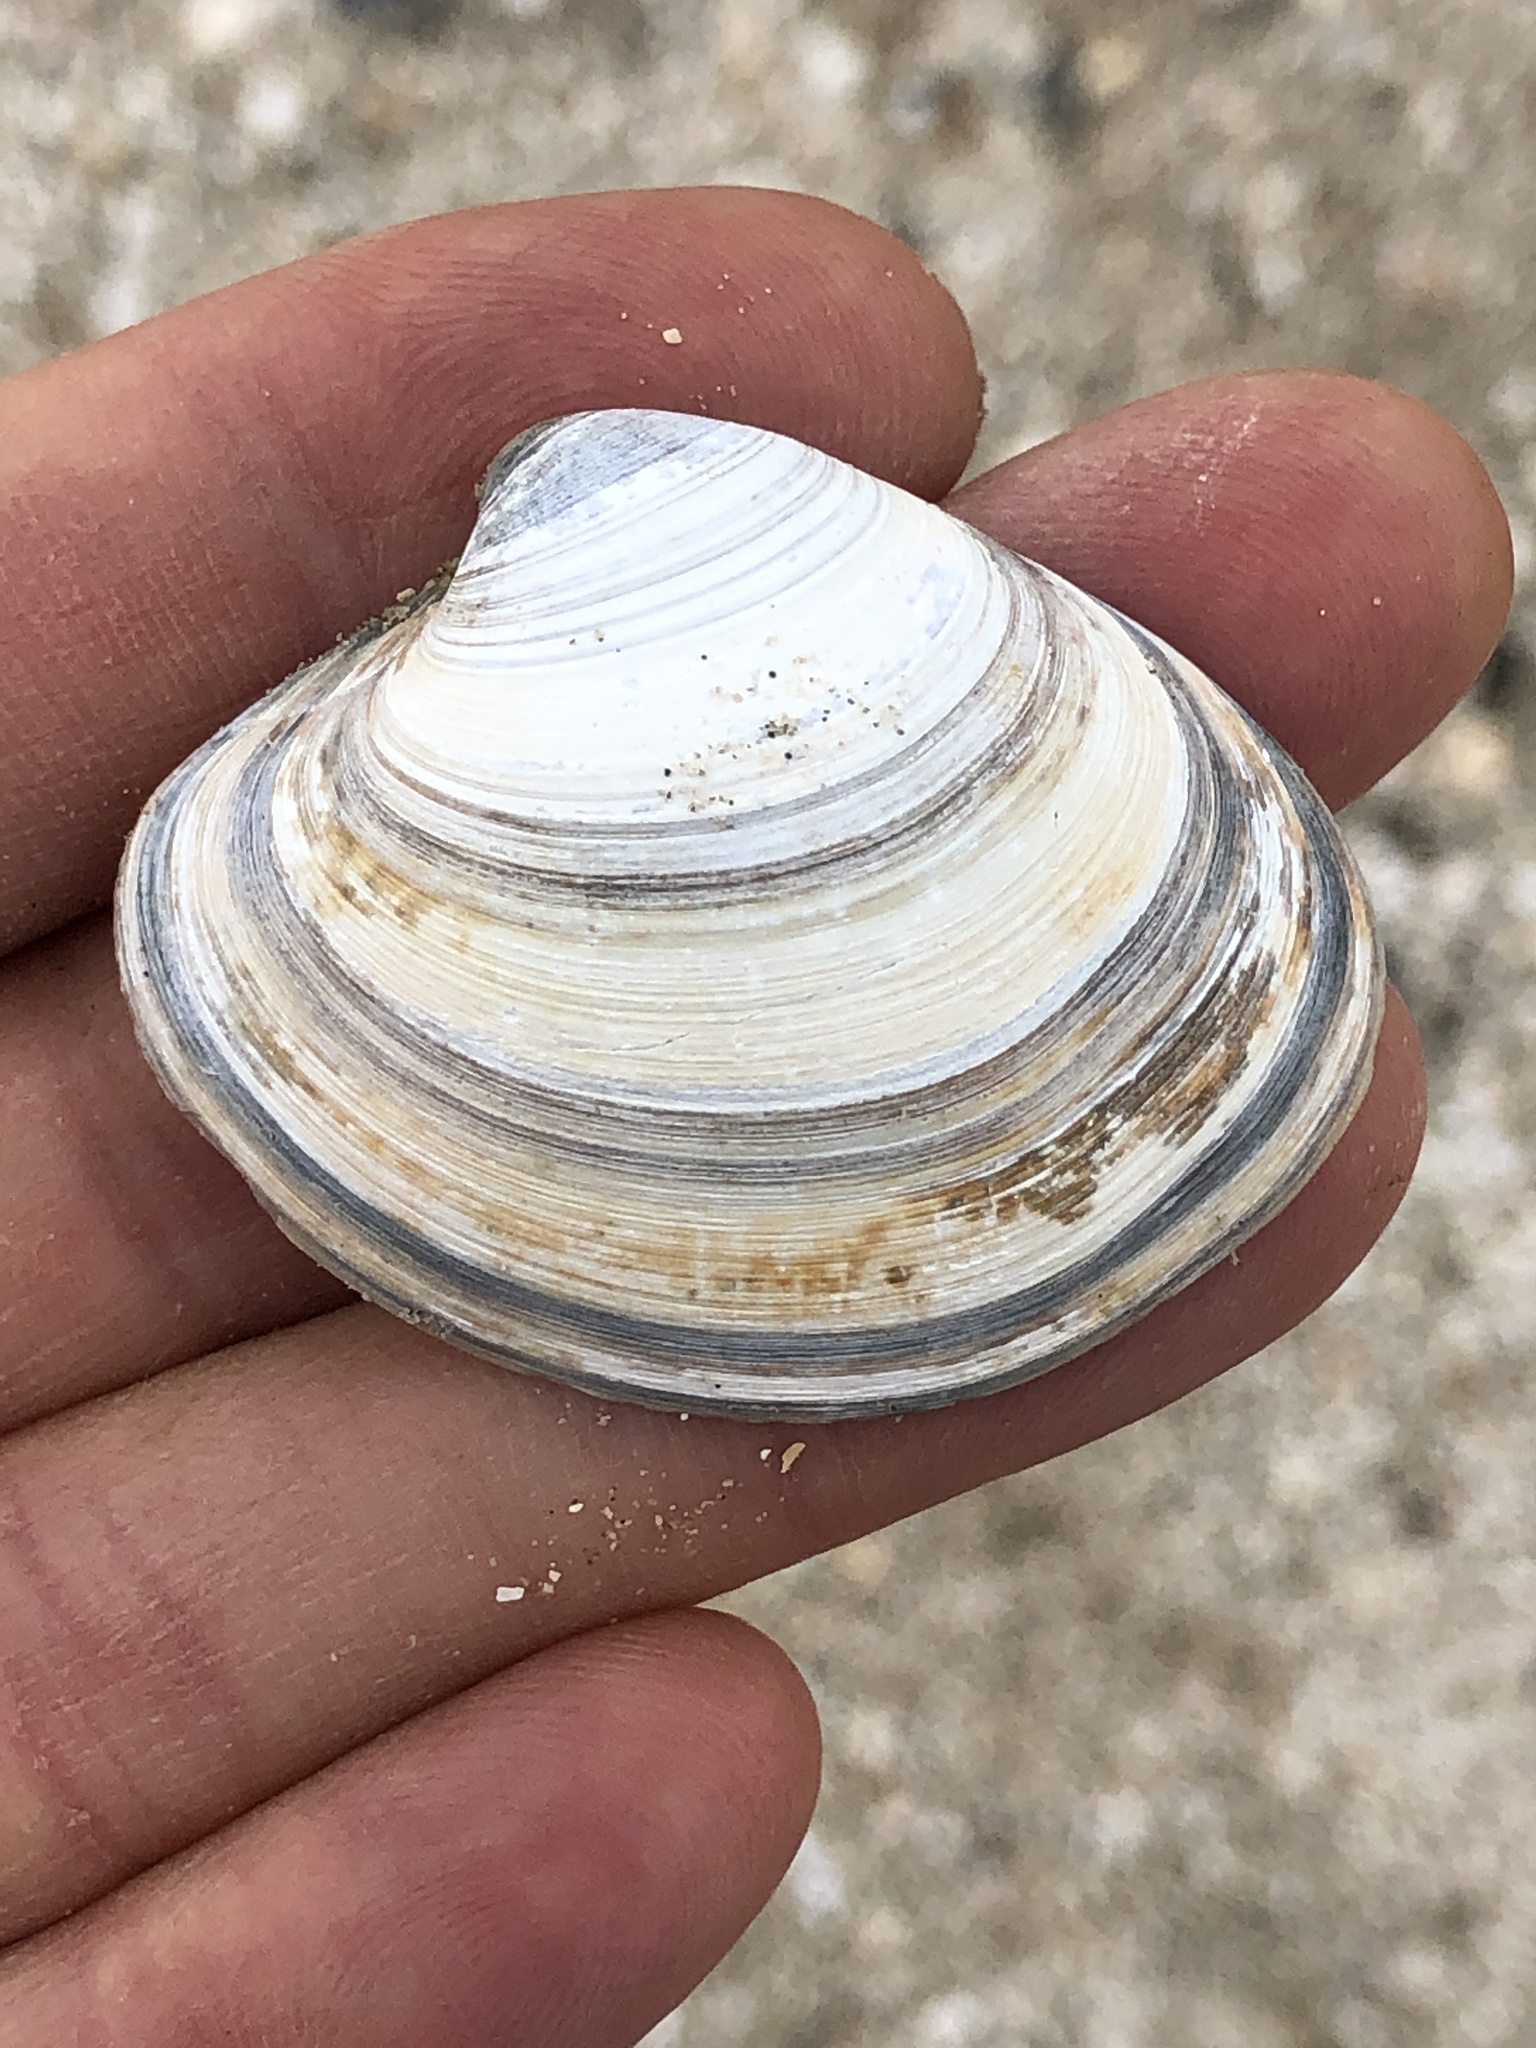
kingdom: Animalia
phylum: Mollusca
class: Bivalvia
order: Venerida
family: Veneridae
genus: Agriopoma
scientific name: Agriopoma texasianum
